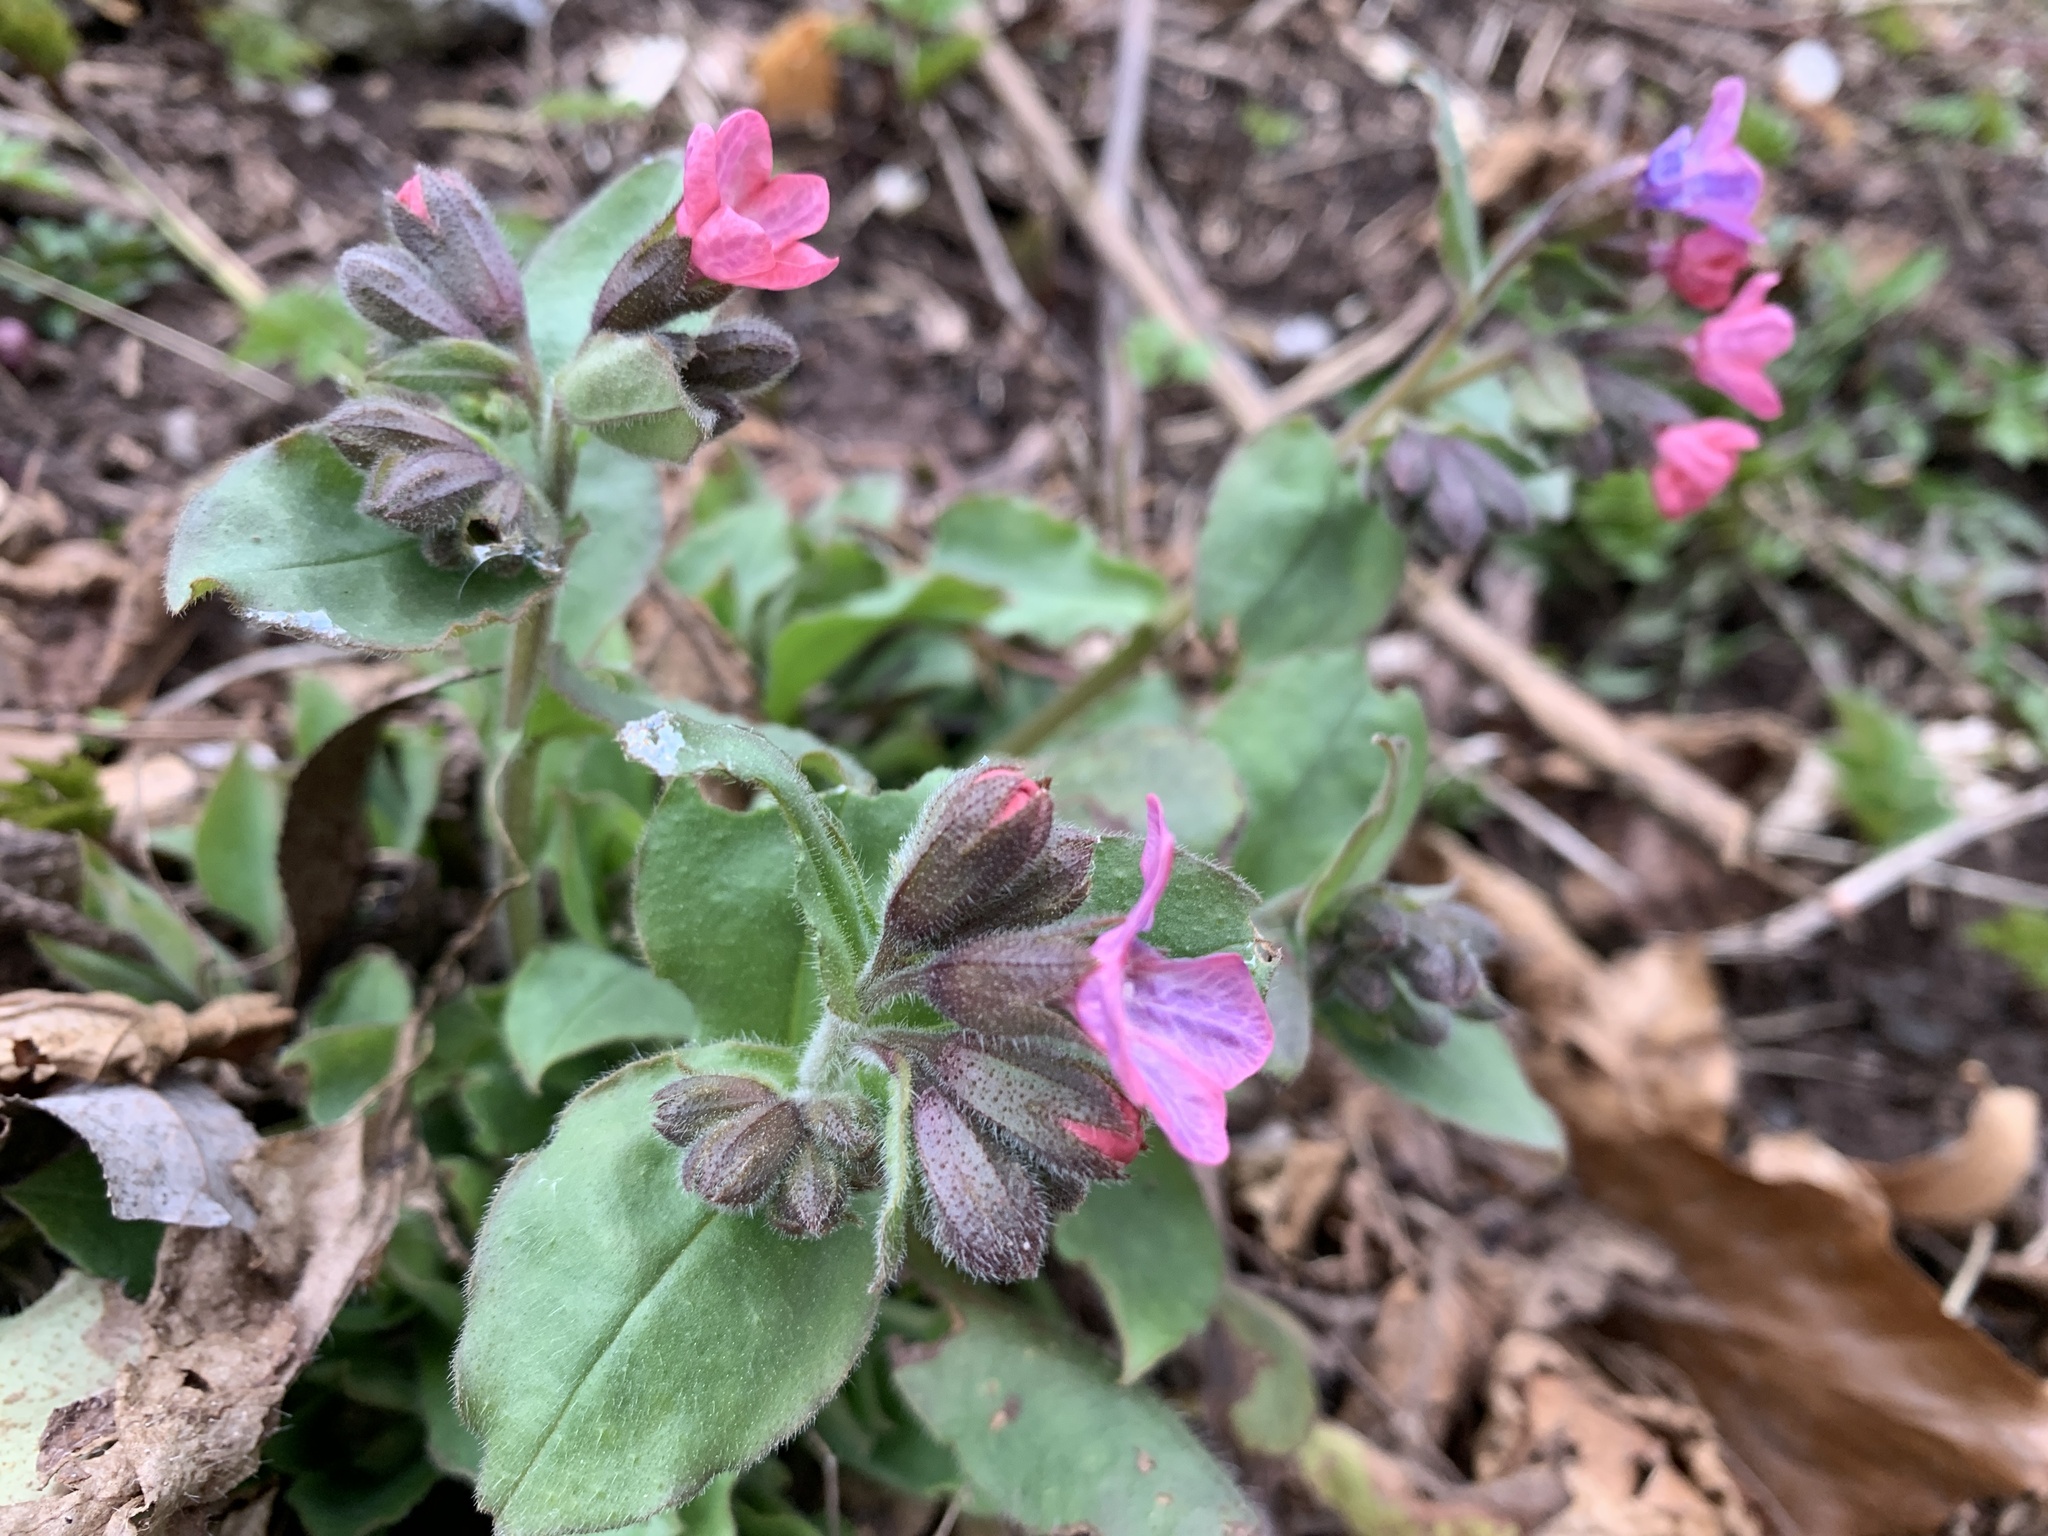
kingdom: Plantae
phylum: Tracheophyta
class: Magnoliopsida
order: Boraginales
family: Boraginaceae
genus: Pulmonaria
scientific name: Pulmonaria obscura
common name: Suffolk lungwort
